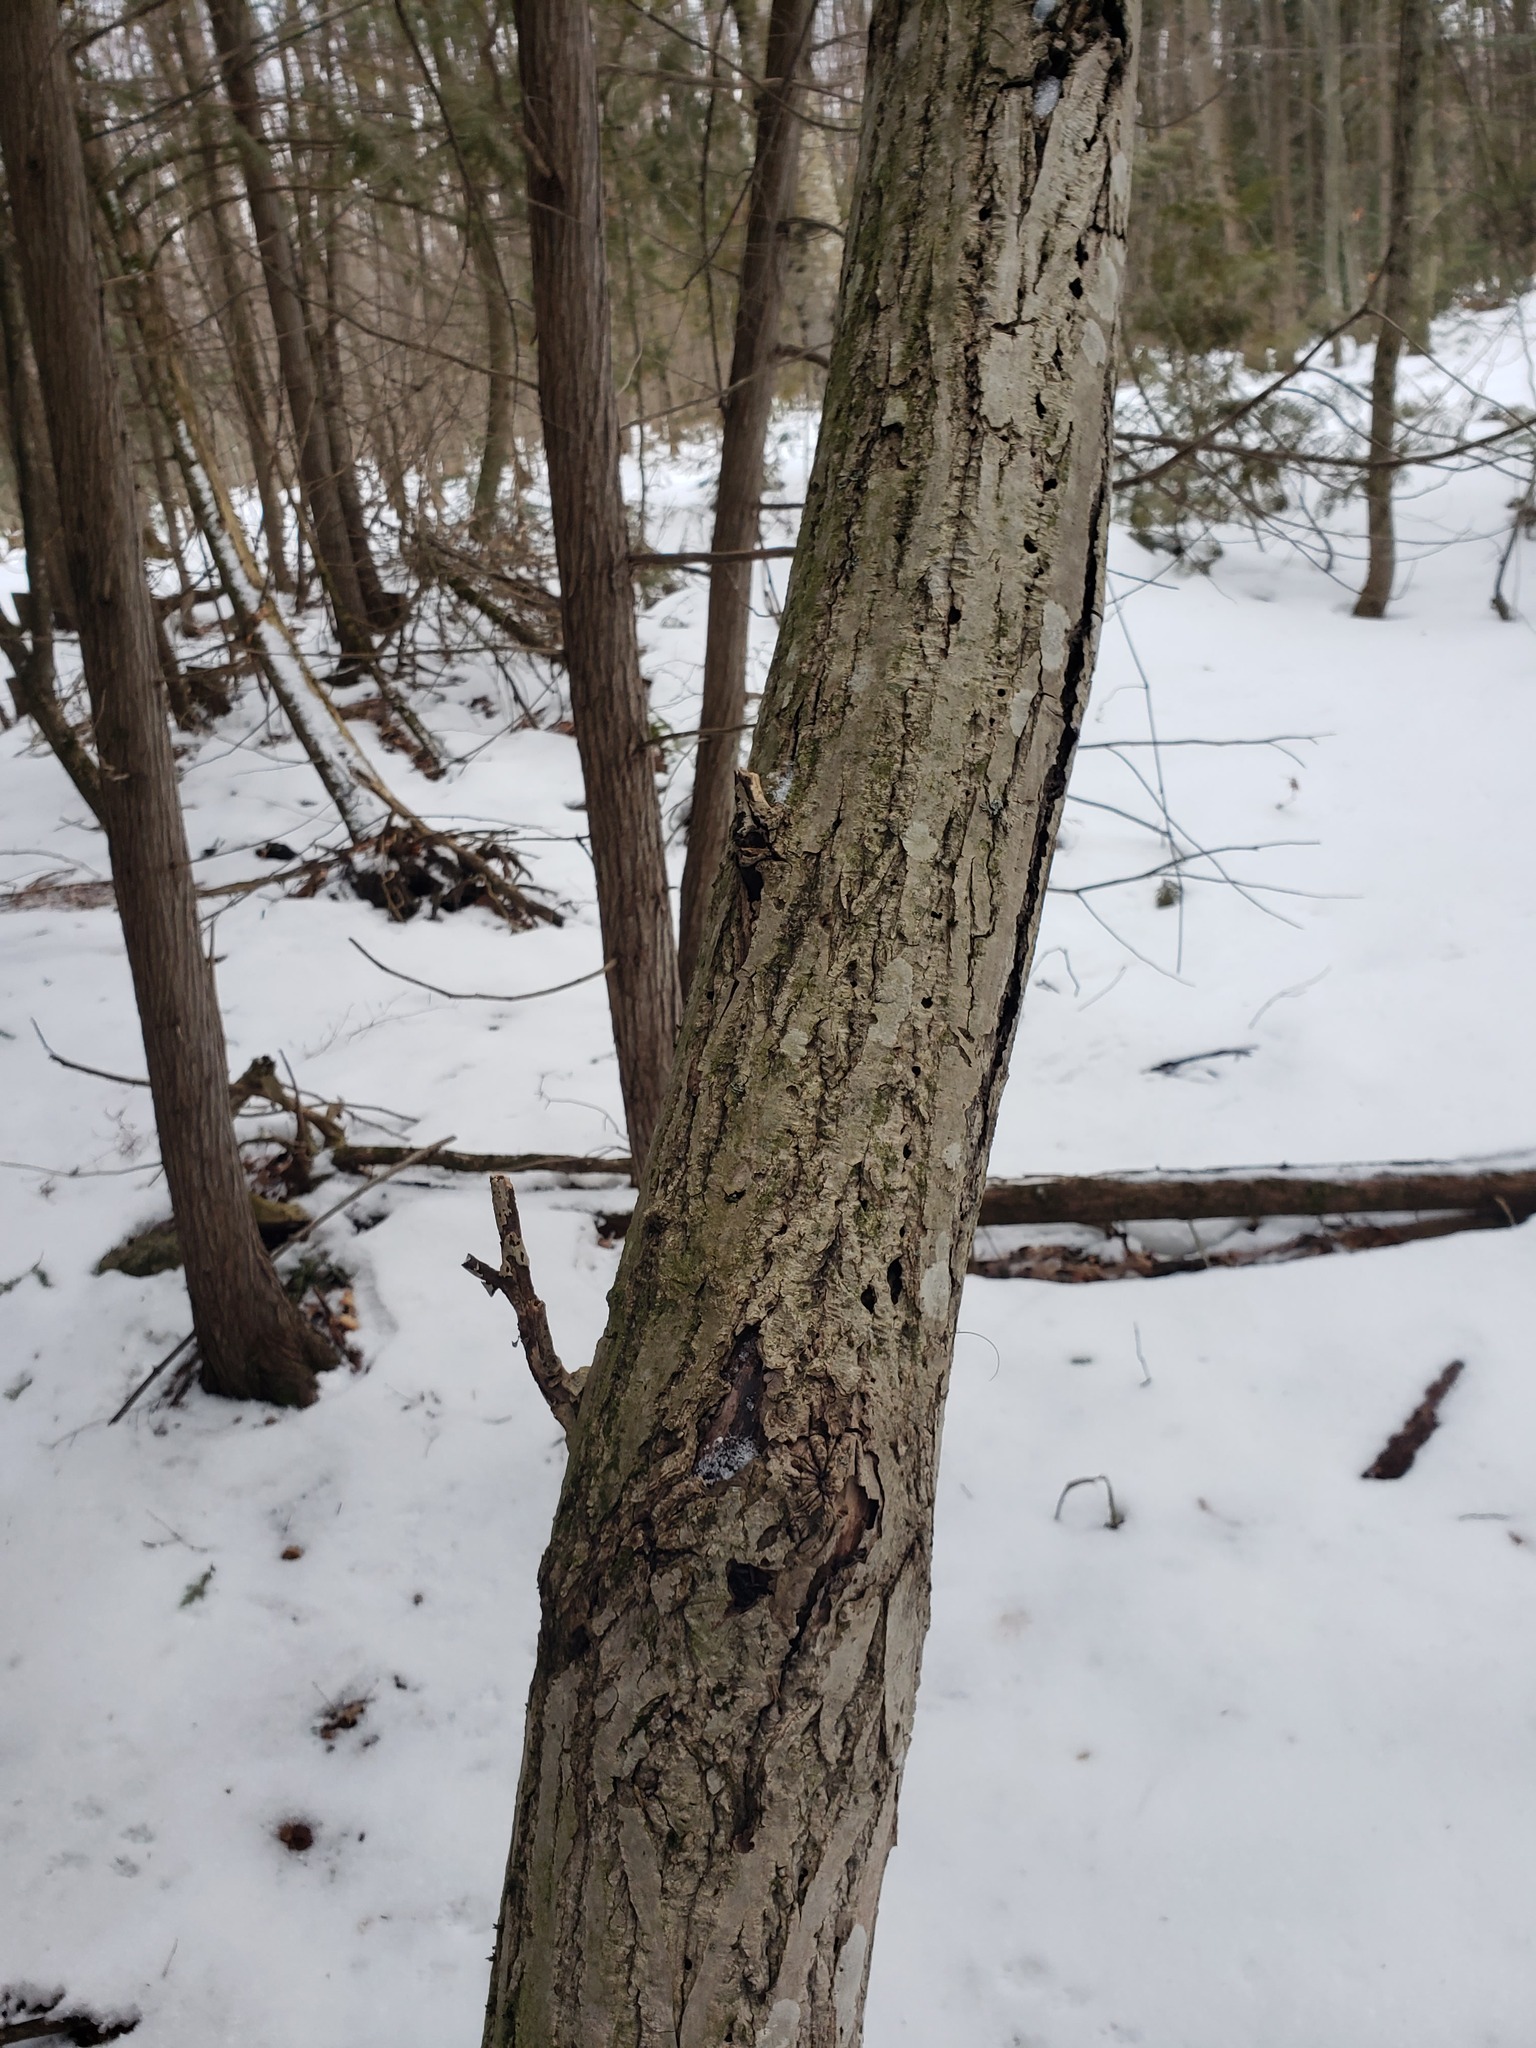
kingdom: Plantae
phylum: Tracheophyta
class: Magnoliopsida
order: Fagales
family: Juglandaceae
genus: Juglans
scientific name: Juglans cinerea
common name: Butternut
